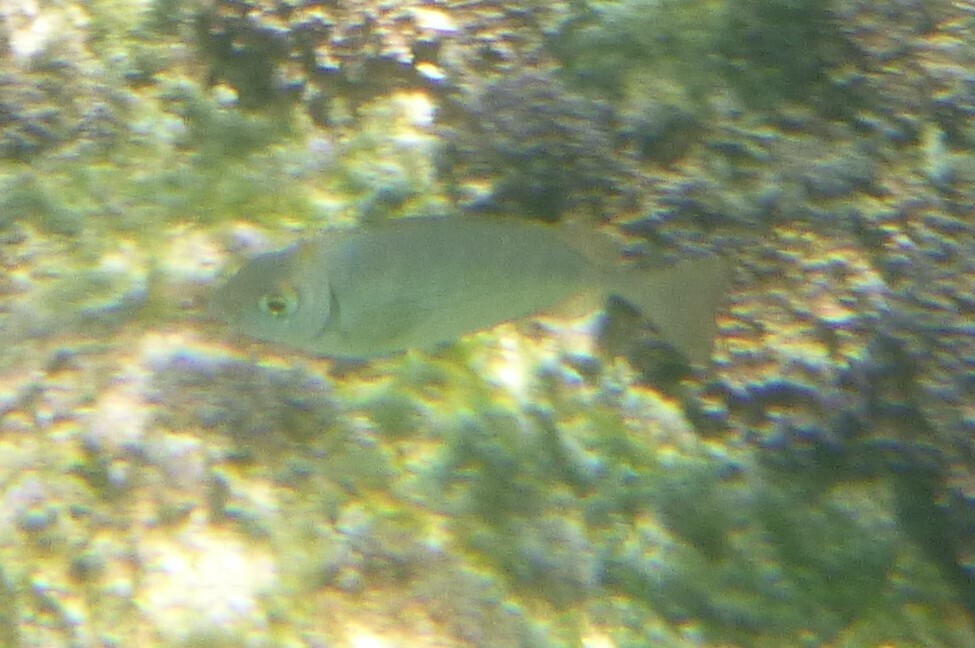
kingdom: Animalia
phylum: Chordata
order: Perciformes
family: Siganidae
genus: Siganus
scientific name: Siganus rivulatus
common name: Marbled spinefoot
